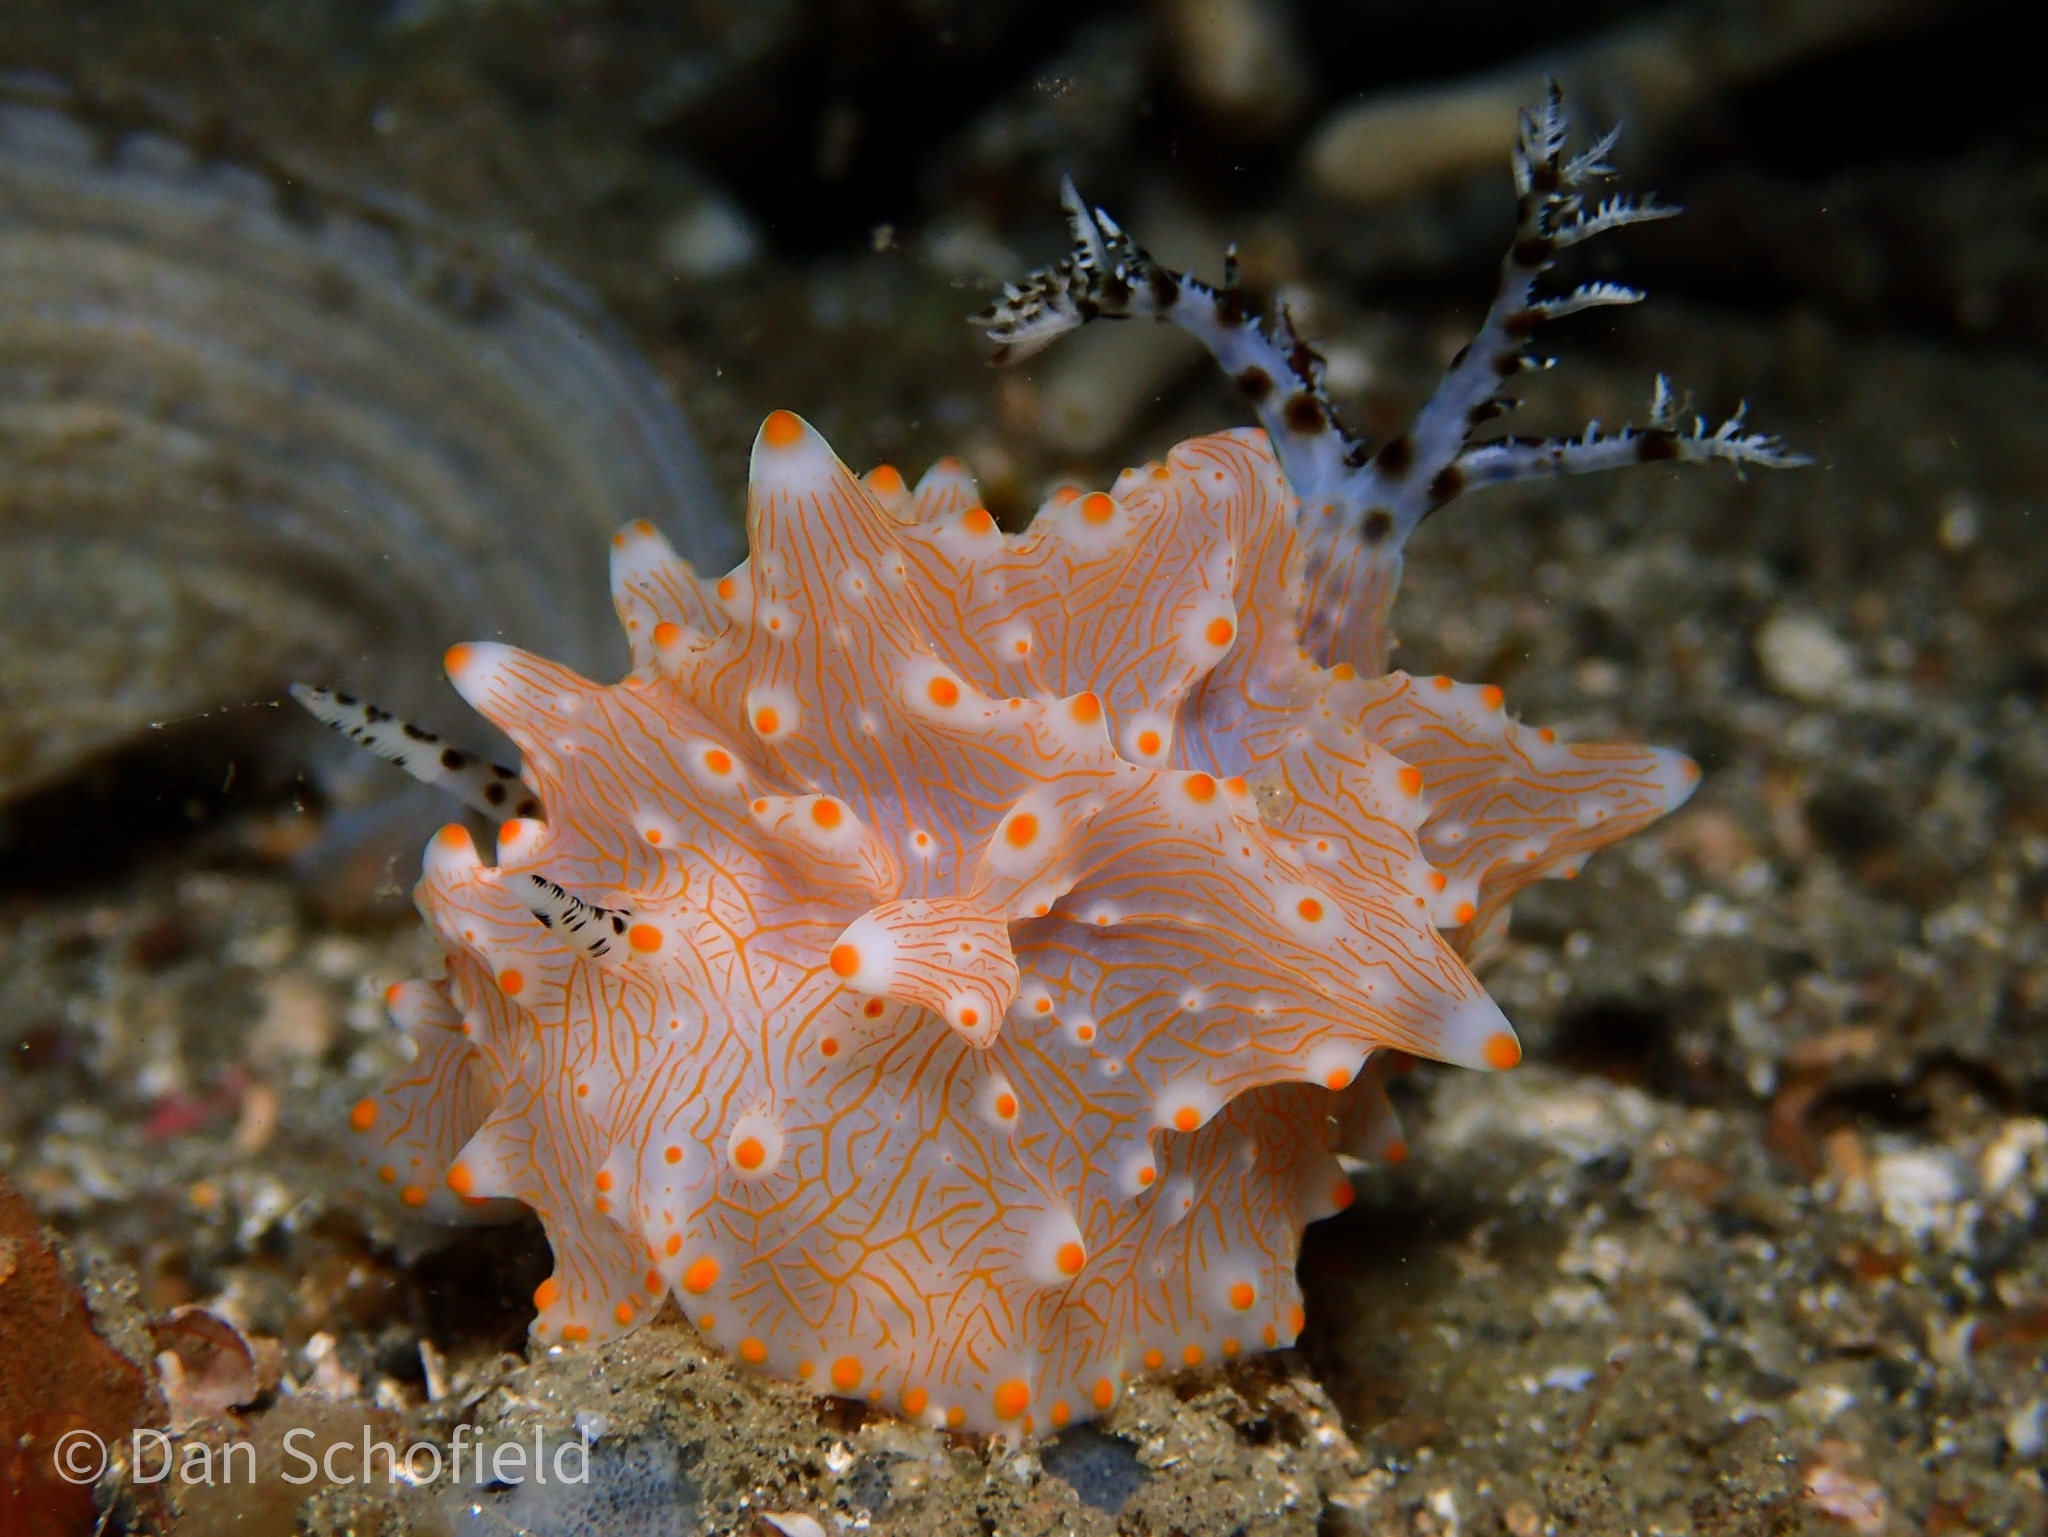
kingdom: Animalia
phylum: Mollusca
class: Gastropoda
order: Nudibranchia
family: Discodorididae
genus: Halgerda
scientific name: Halgerda batangas
